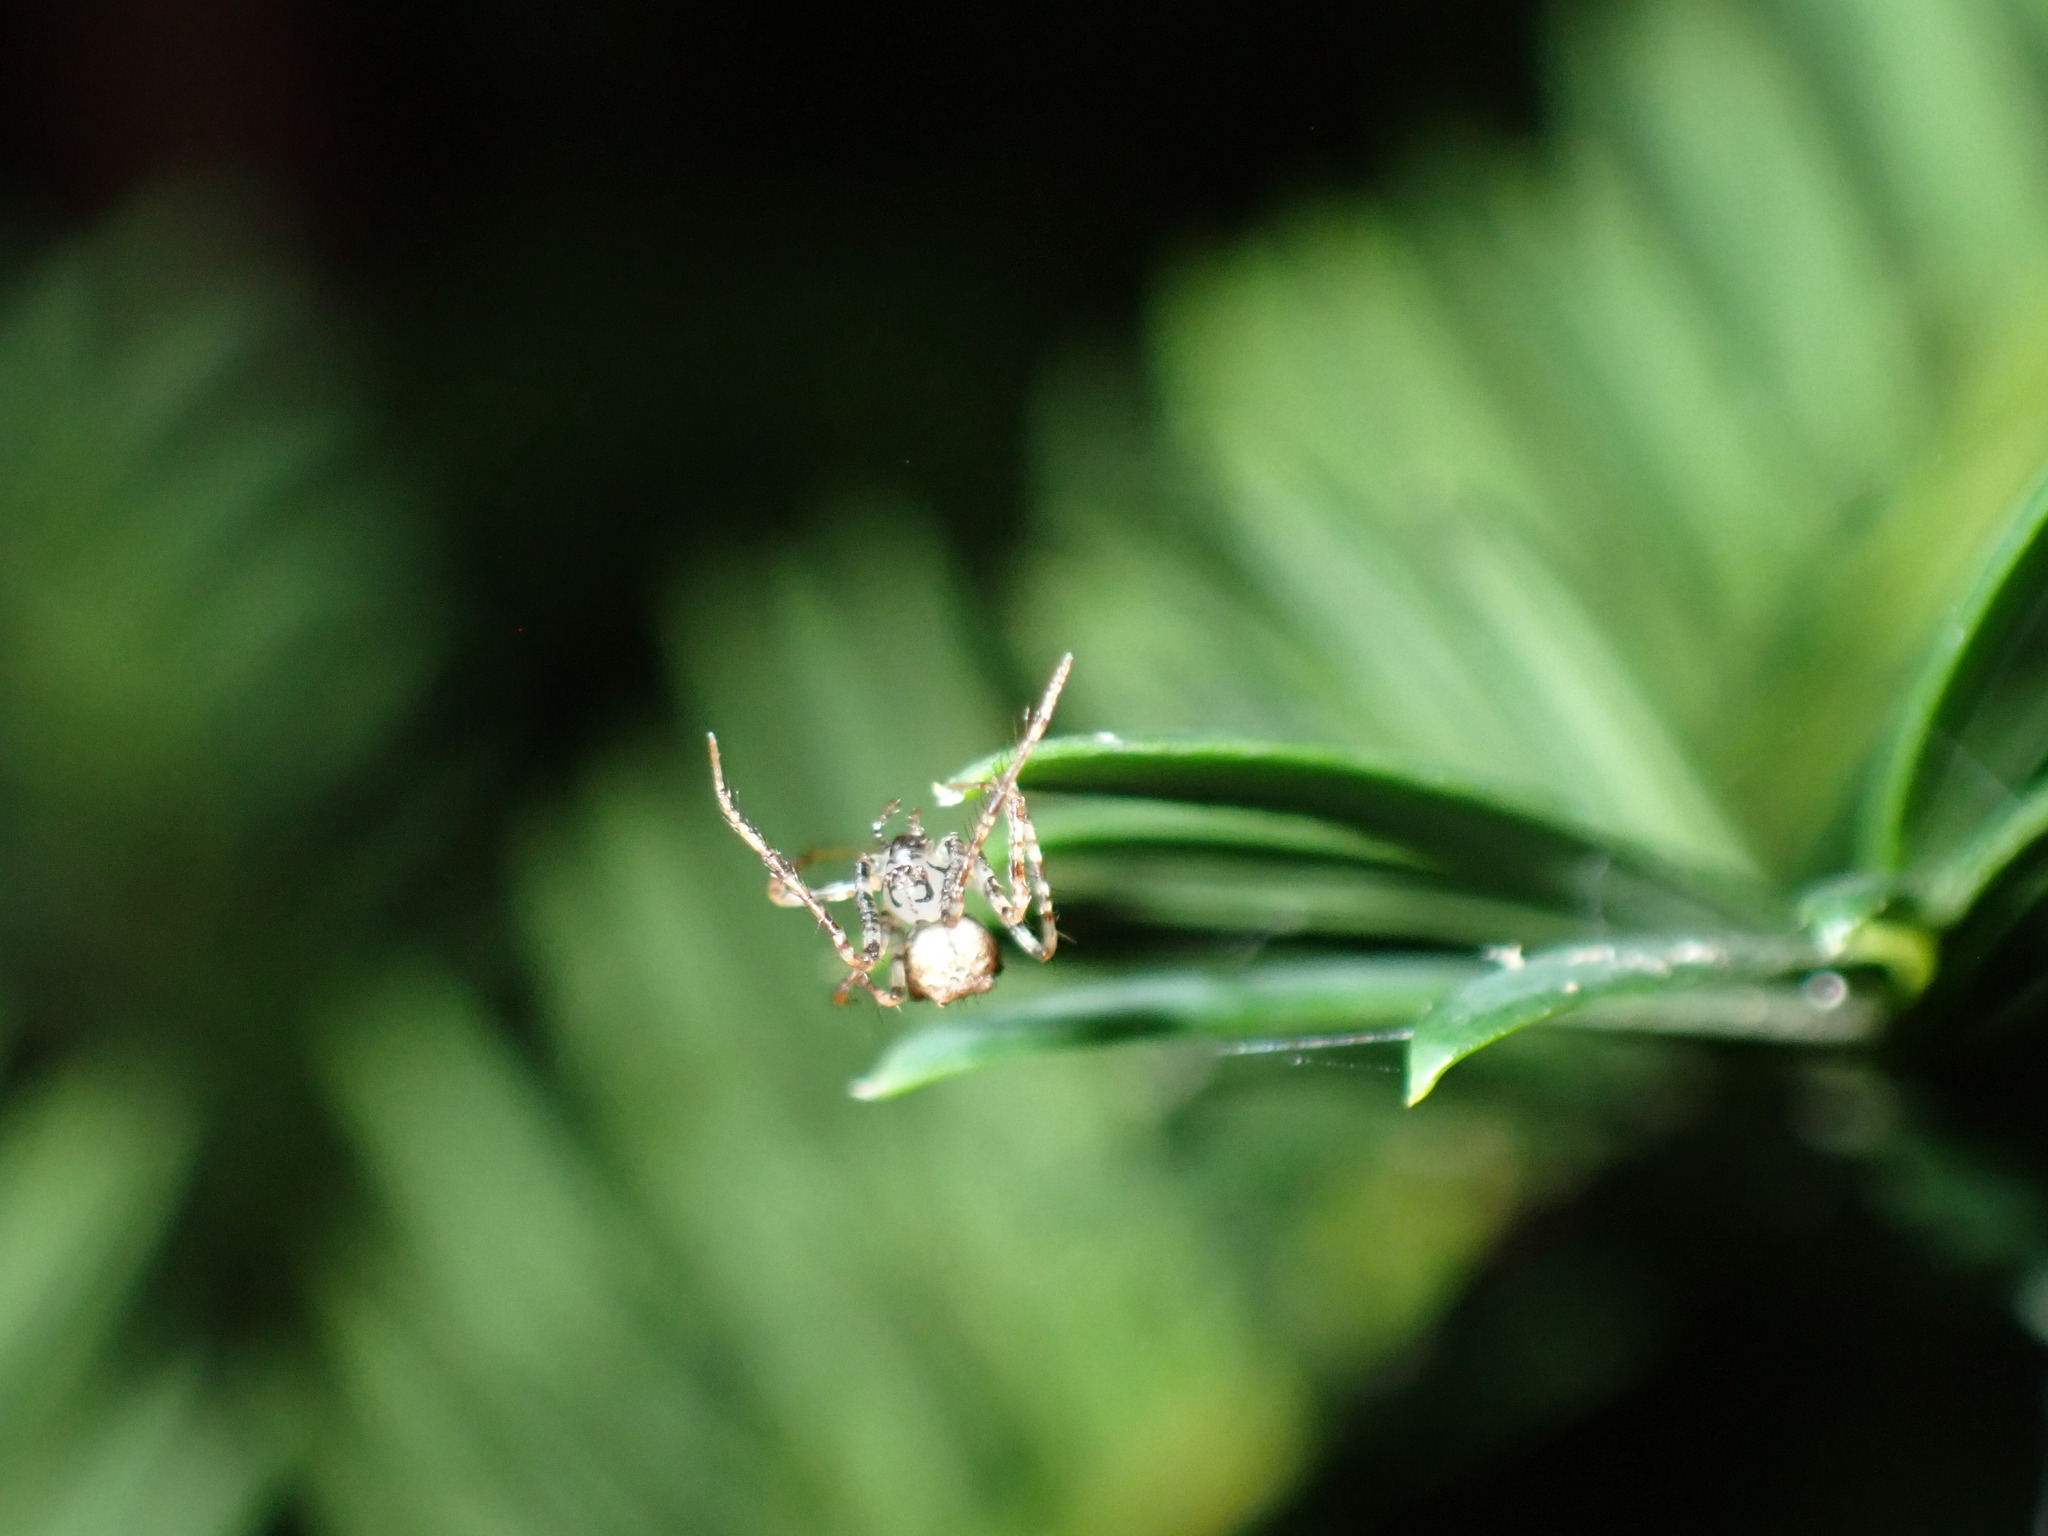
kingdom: Animalia
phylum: Arthropoda
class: Arachnida
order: Araneae
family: Mimetidae
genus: Ero
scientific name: Ero aphana
